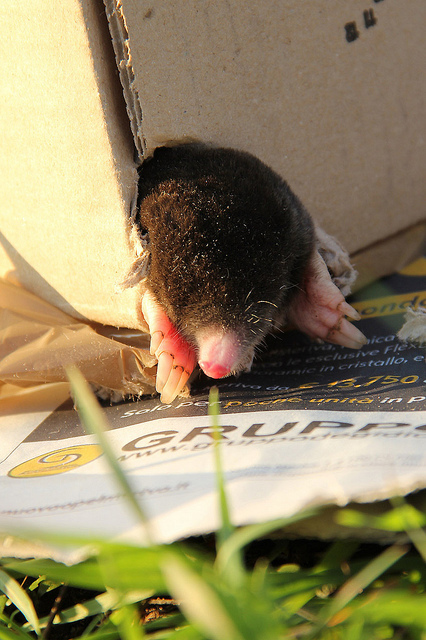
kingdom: Animalia
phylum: Chordata
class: Mammalia
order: Soricomorpha
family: Talpidae
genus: Talpa
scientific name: Talpa romana
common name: Roman mole
